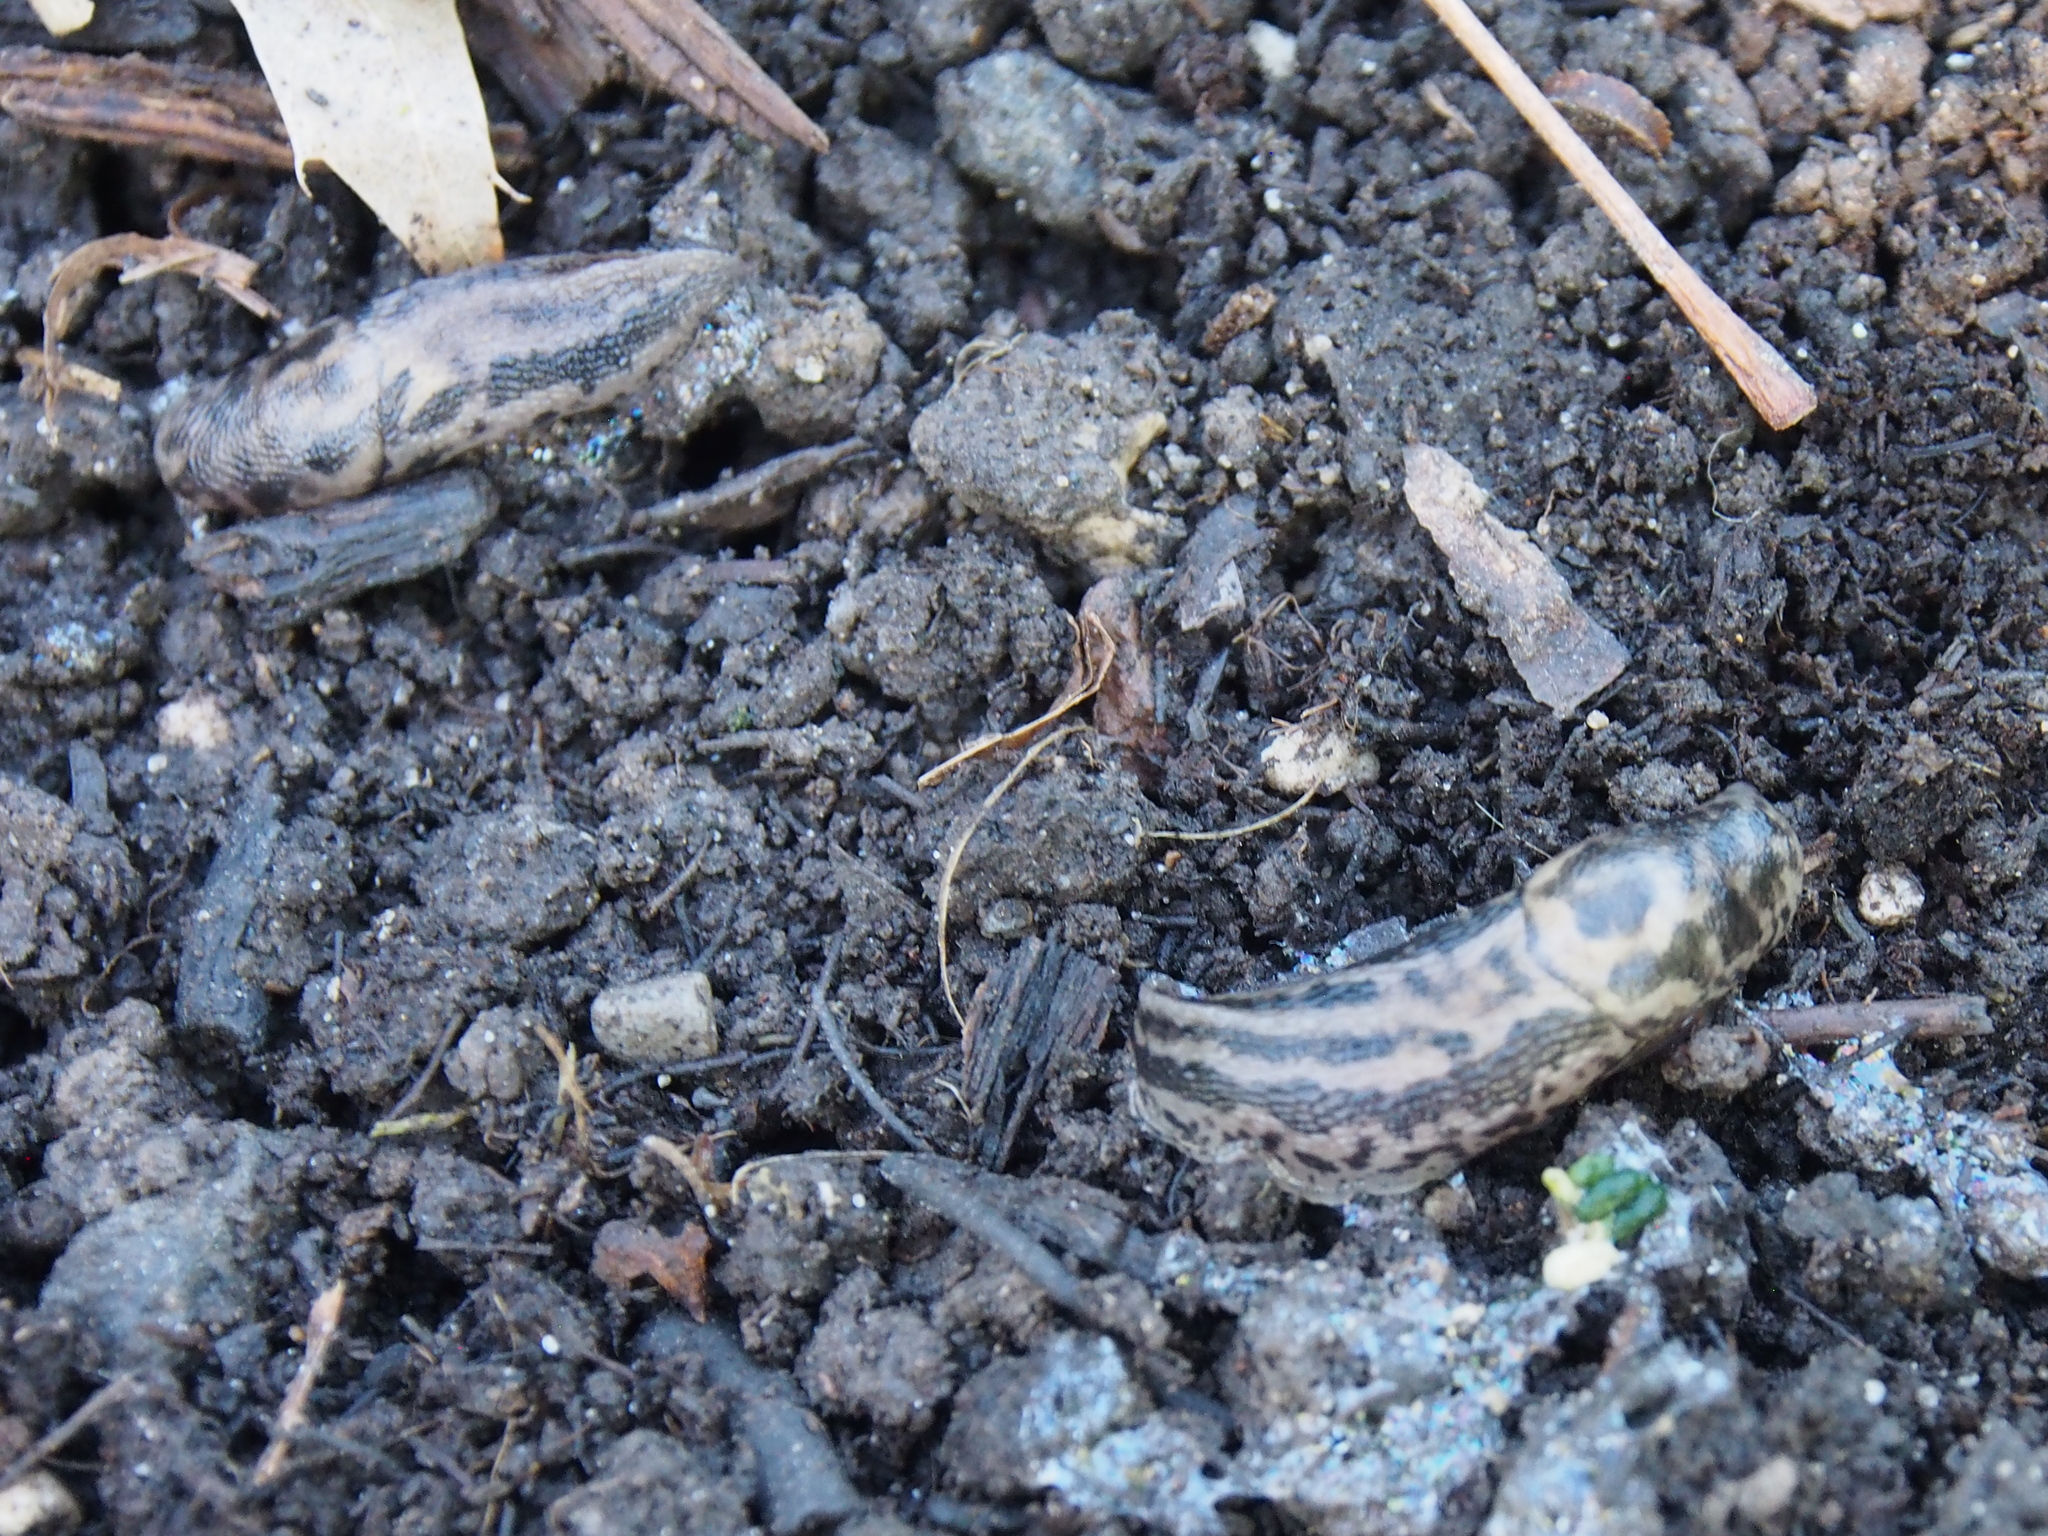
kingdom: Animalia
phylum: Mollusca
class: Gastropoda
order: Stylommatophora
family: Limacidae
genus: Limax
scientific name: Limax maximus
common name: Great grey slug
